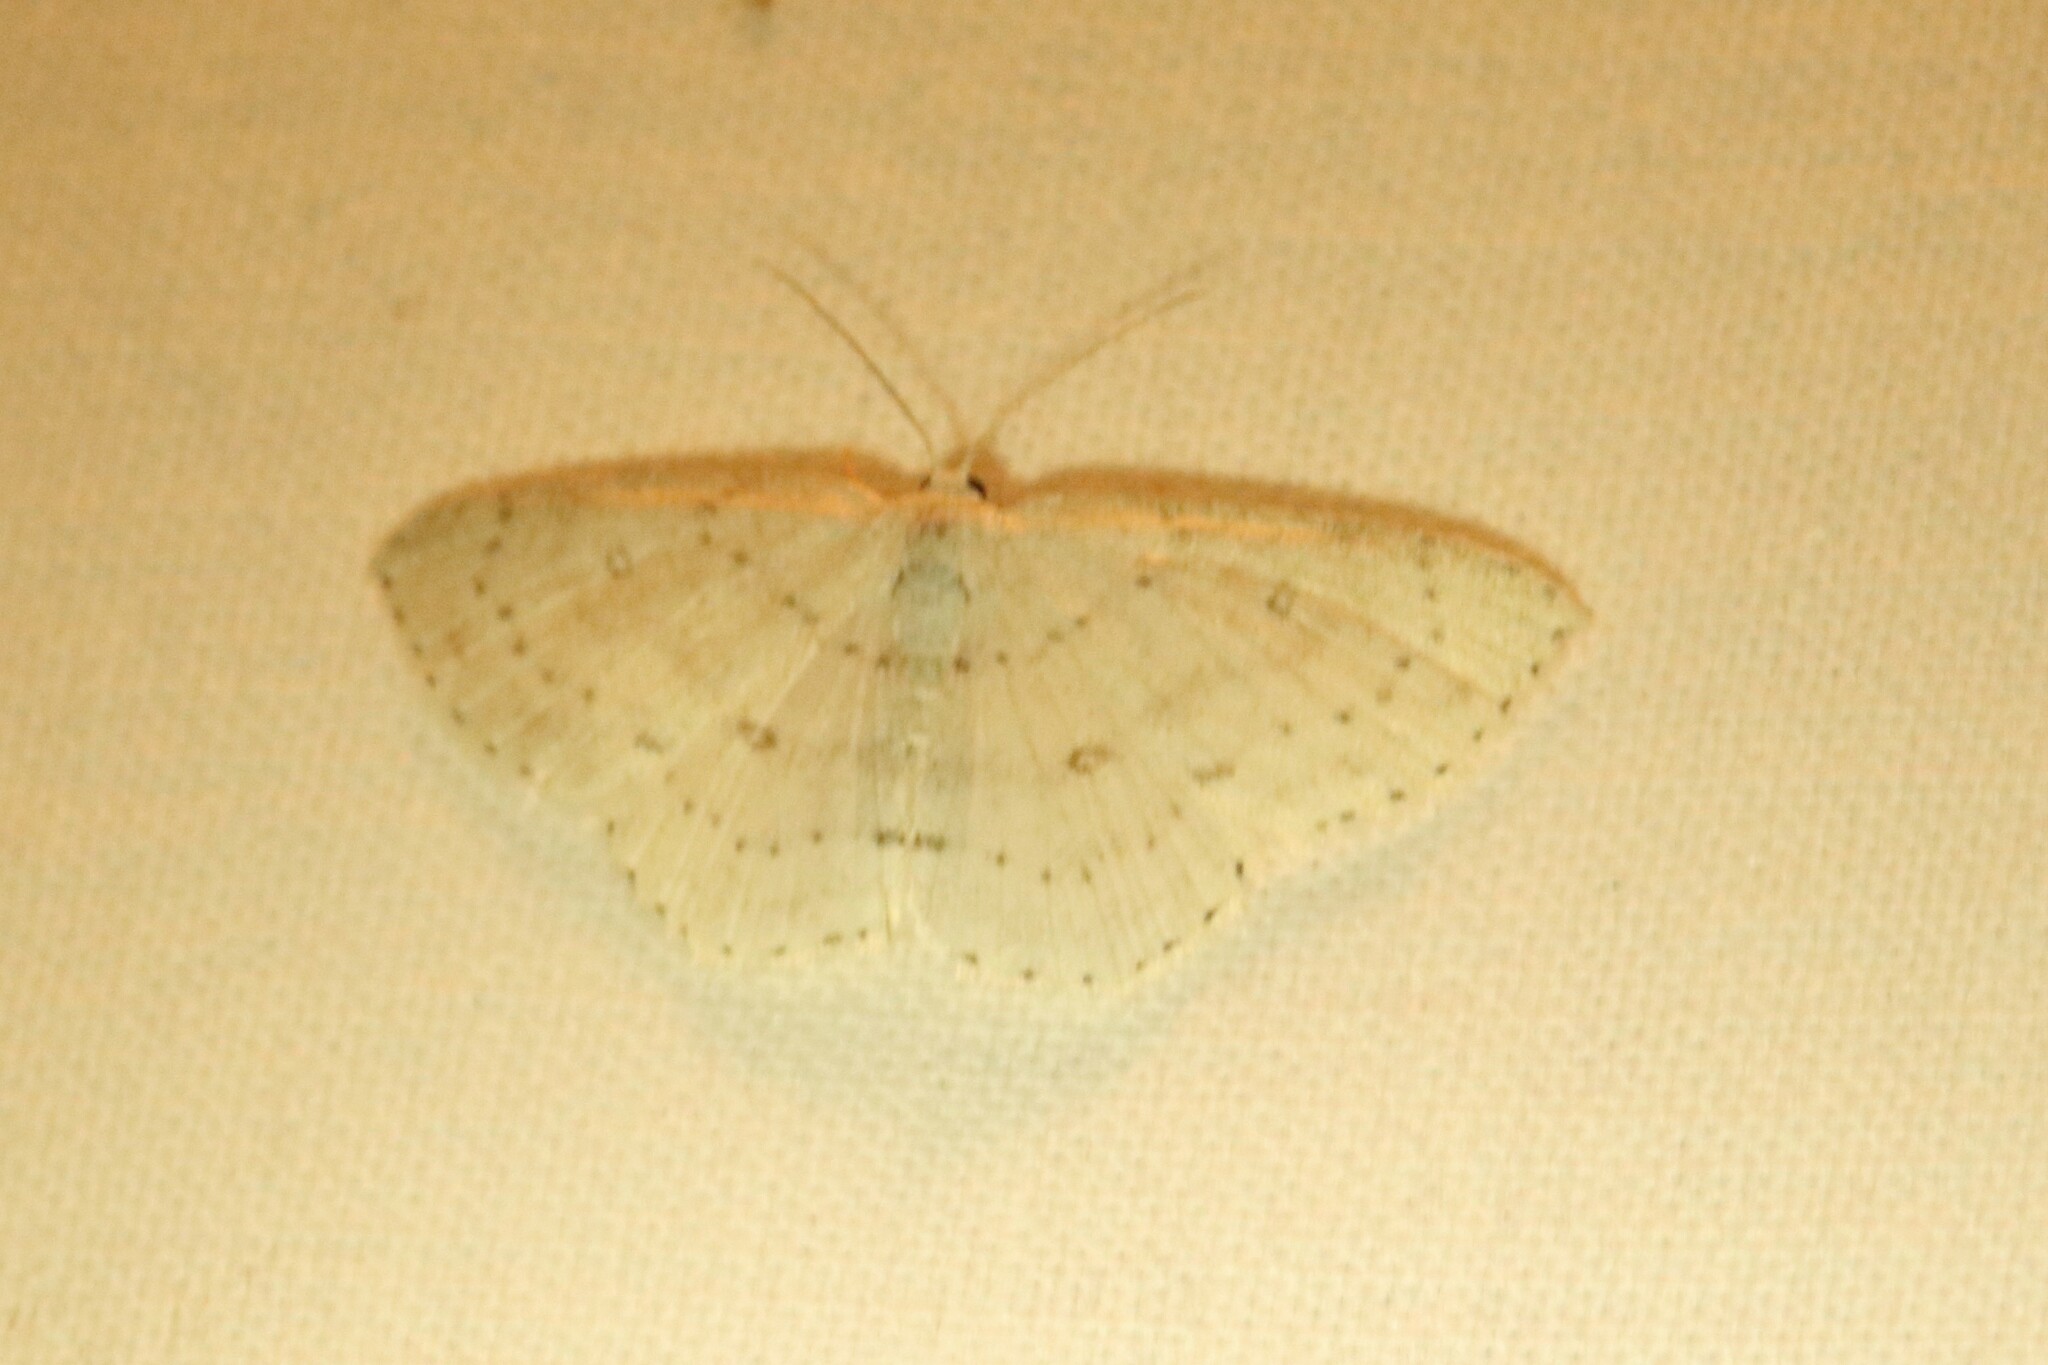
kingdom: Animalia
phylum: Arthropoda
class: Insecta
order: Lepidoptera
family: Geometridae
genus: Cyclophora
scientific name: Cyclophora pendulinaria
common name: Sweet fern geometer
